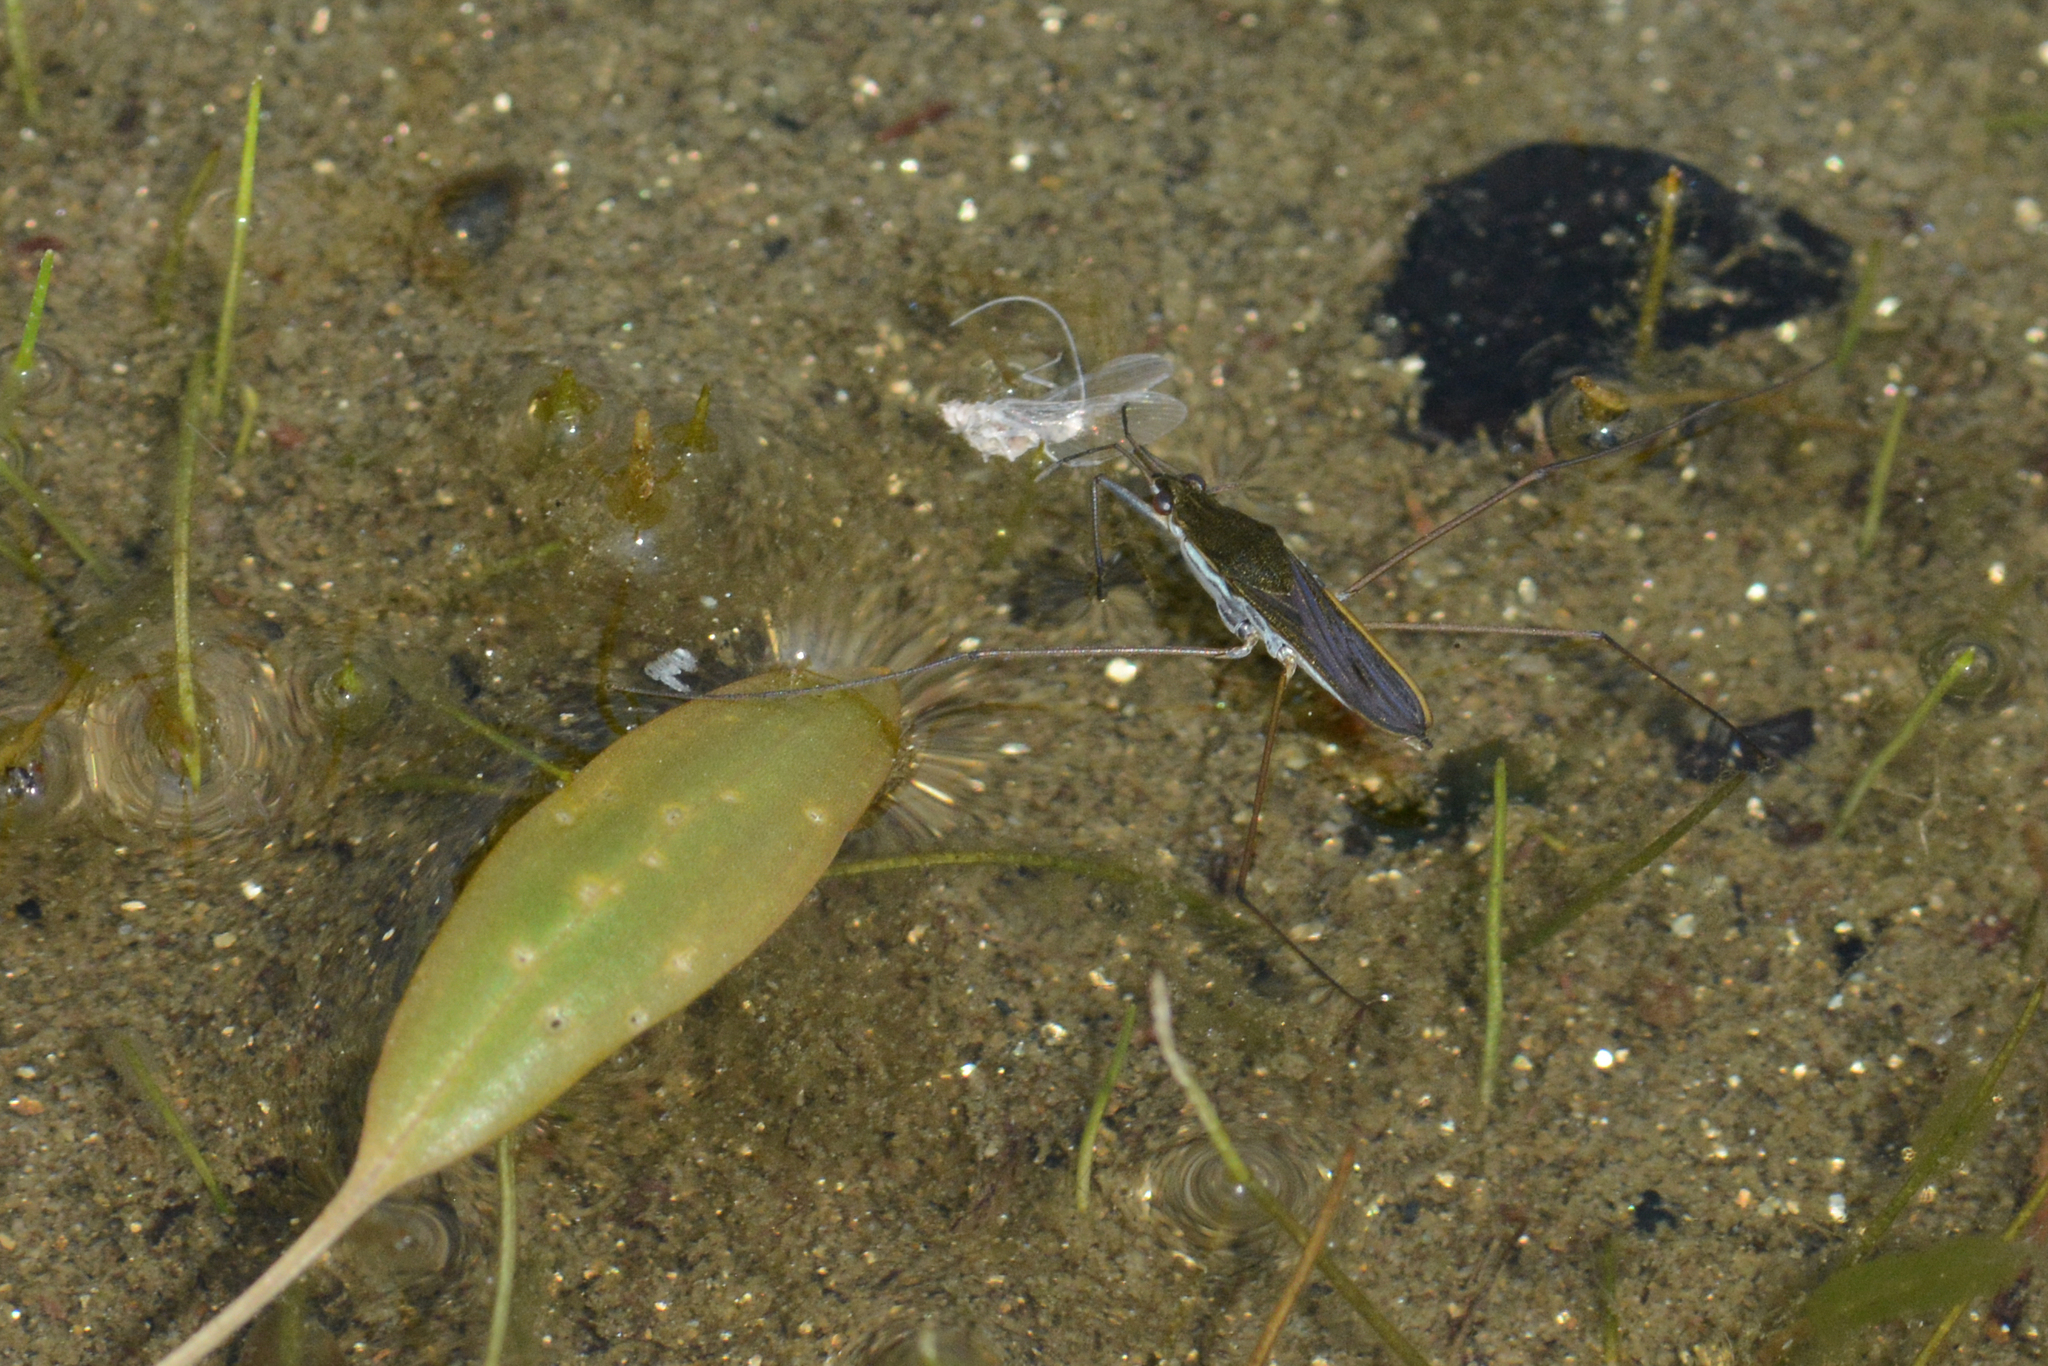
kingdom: Animalia
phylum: Arthropoda
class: Insecta
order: Hemiptera
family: Gerridae
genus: Gerris
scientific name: Gerris
